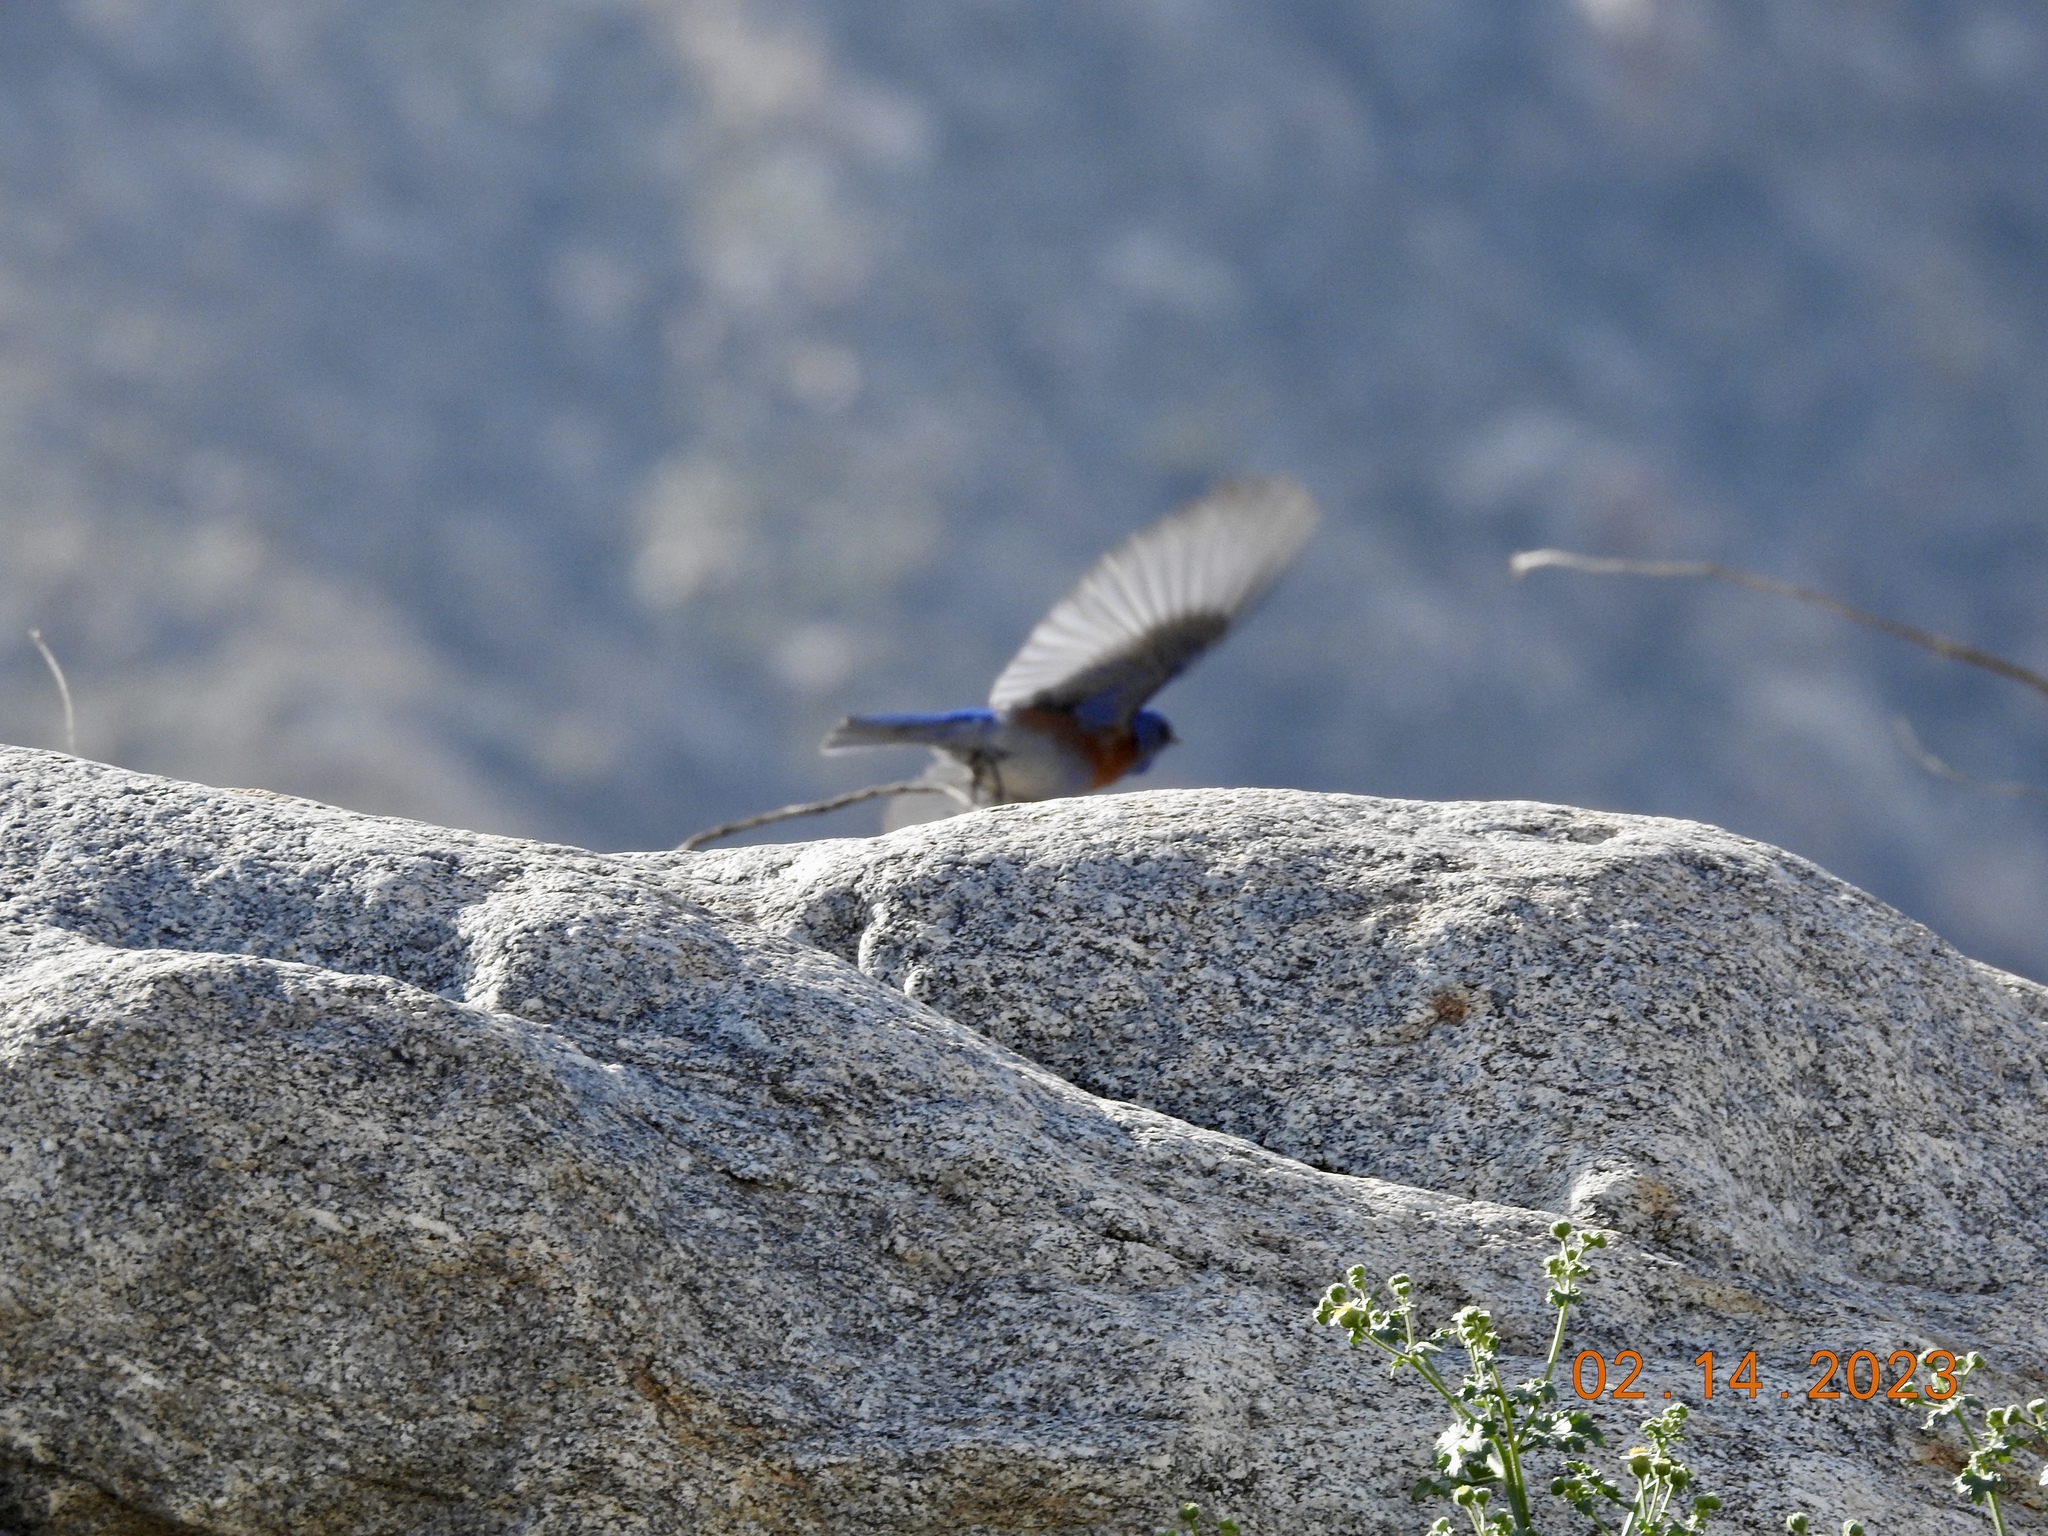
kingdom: Animalia
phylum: Chordata
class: Aves
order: Passeriformes
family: Turdidae
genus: Sialia
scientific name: Sialia mexicana
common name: Western bluebird
